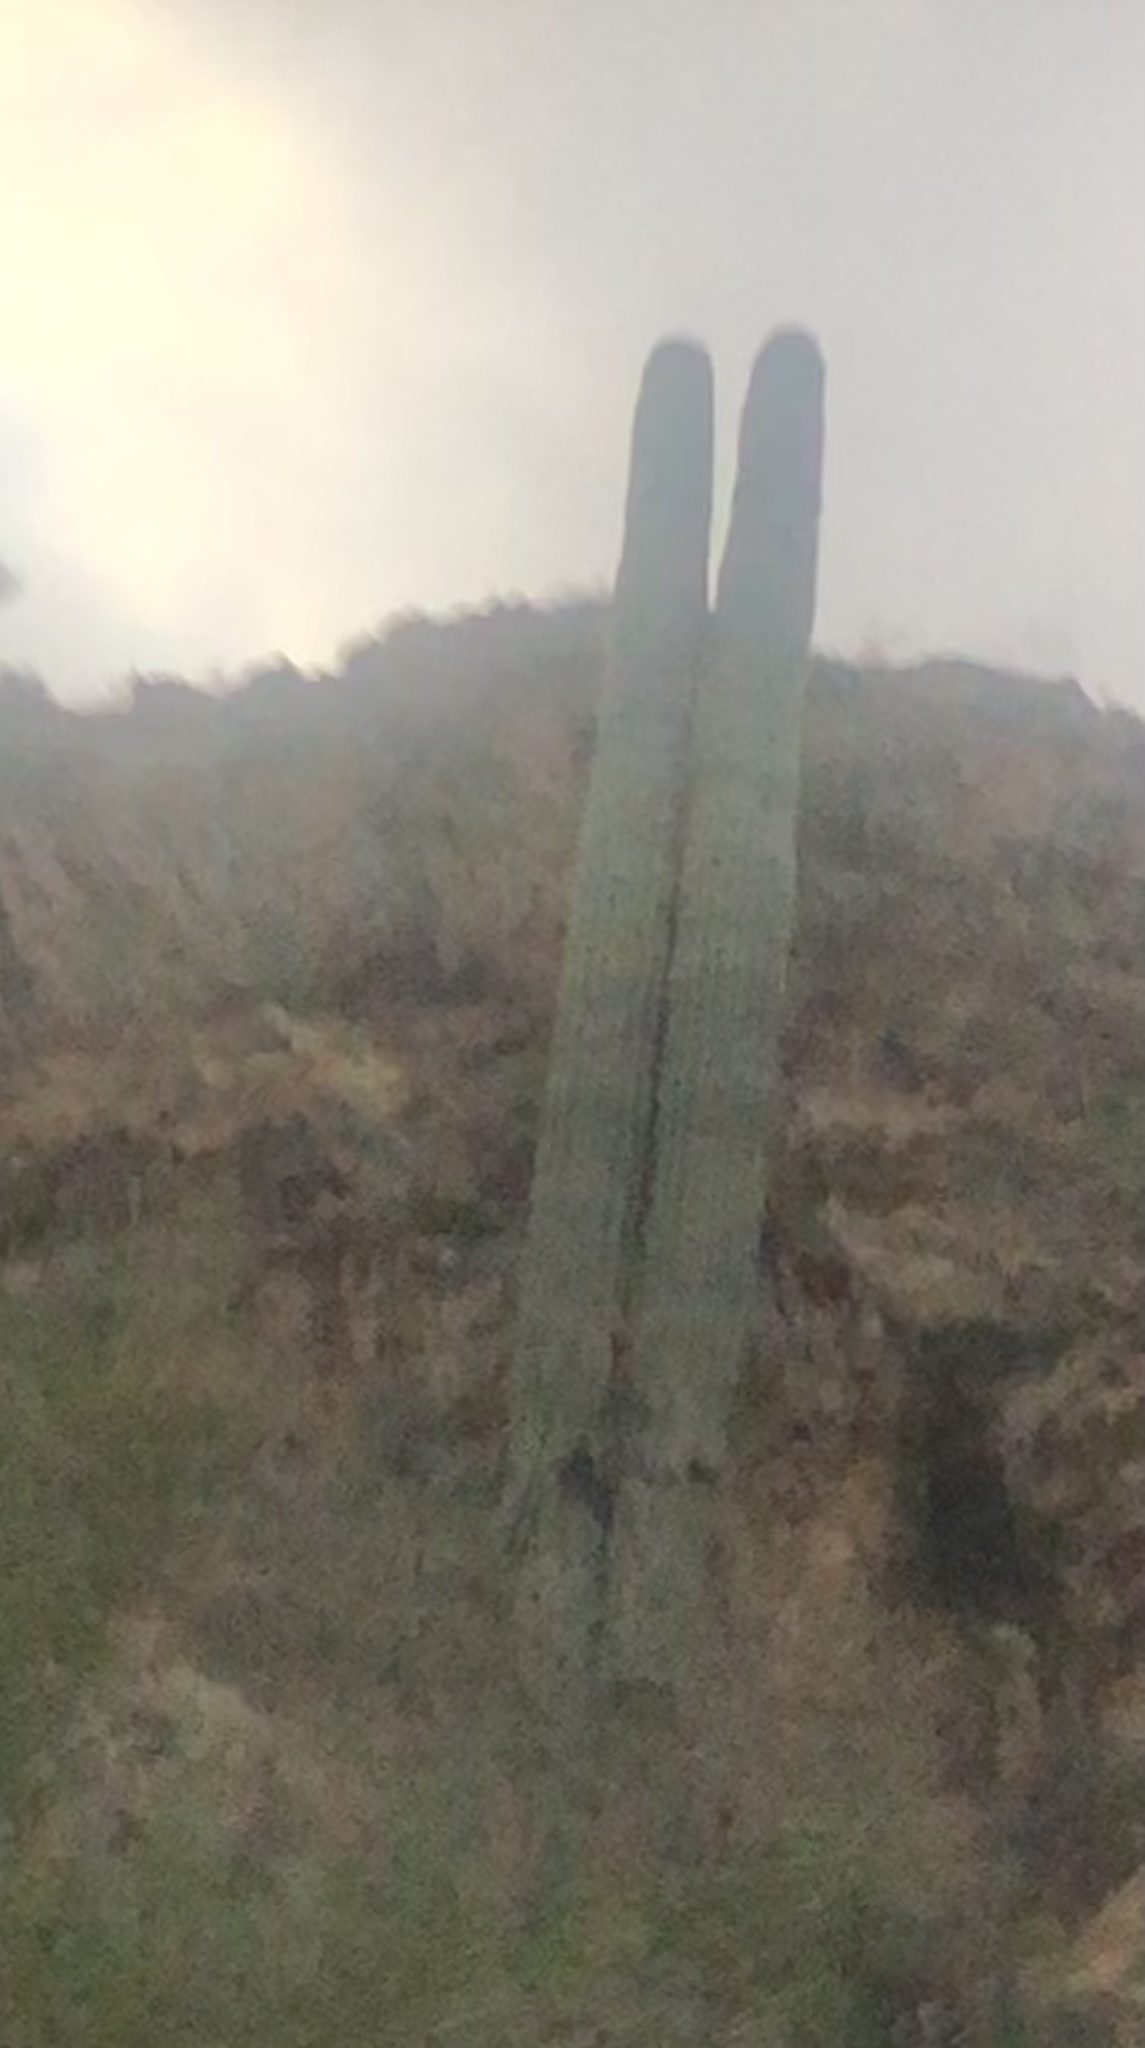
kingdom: Plantae
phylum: Tracheophyta
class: Magnoliopsida
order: Caryophyllales
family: Cactaceae
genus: Carnegiea
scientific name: Carnegiea gigantea
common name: Saguaro
